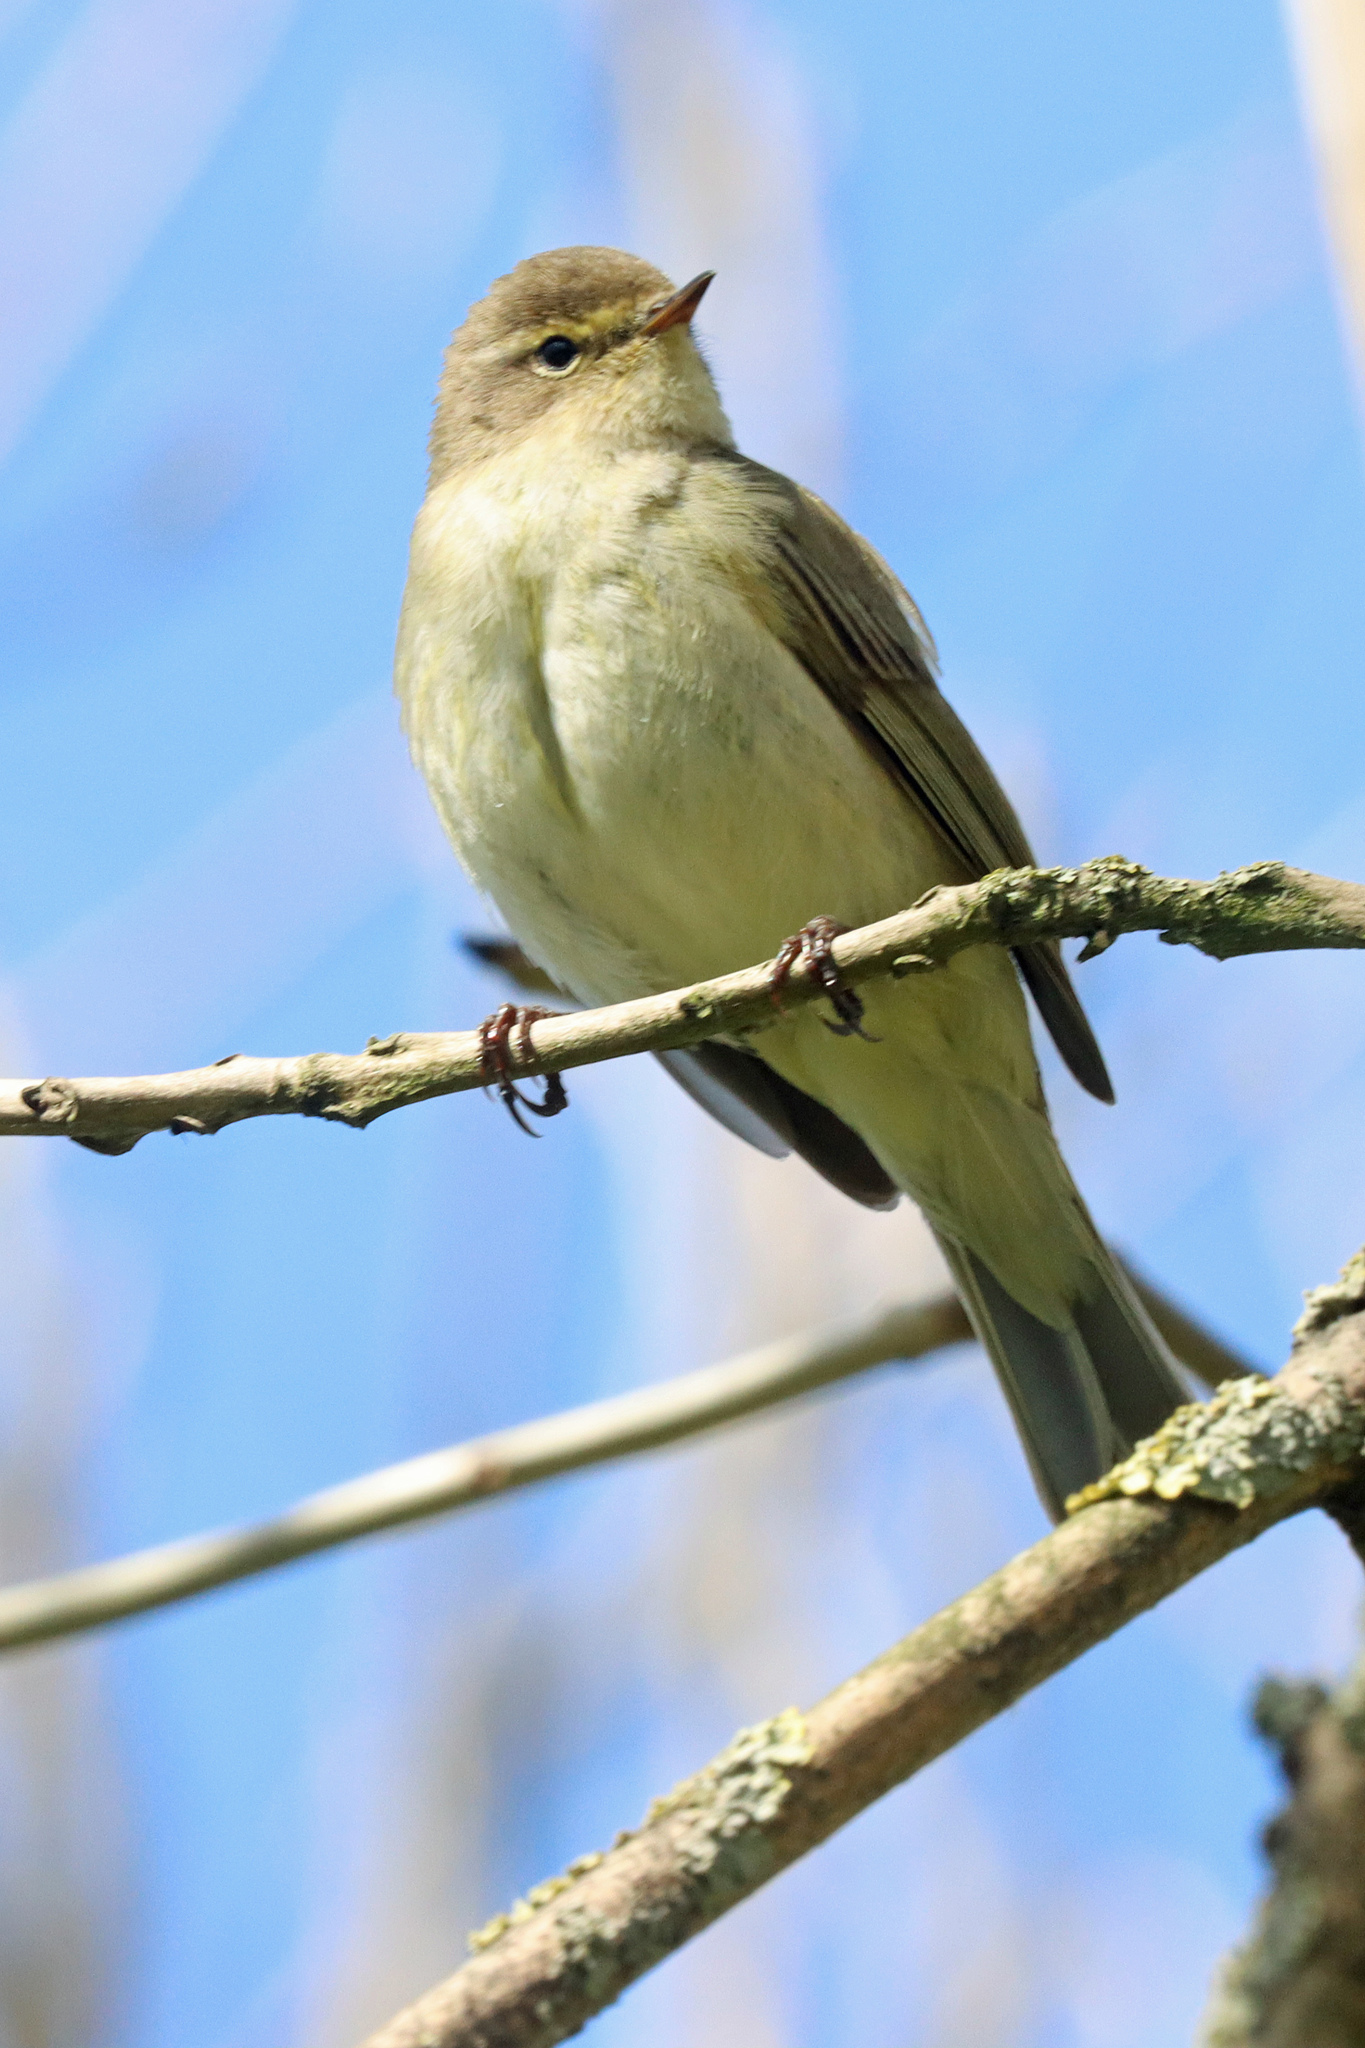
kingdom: Animalia
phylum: Chordata
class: Aves
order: Passeriformes
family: Phylloscopidae
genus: Phylloscopus
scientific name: Phylloscopus collybita
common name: Common chiffchaff
